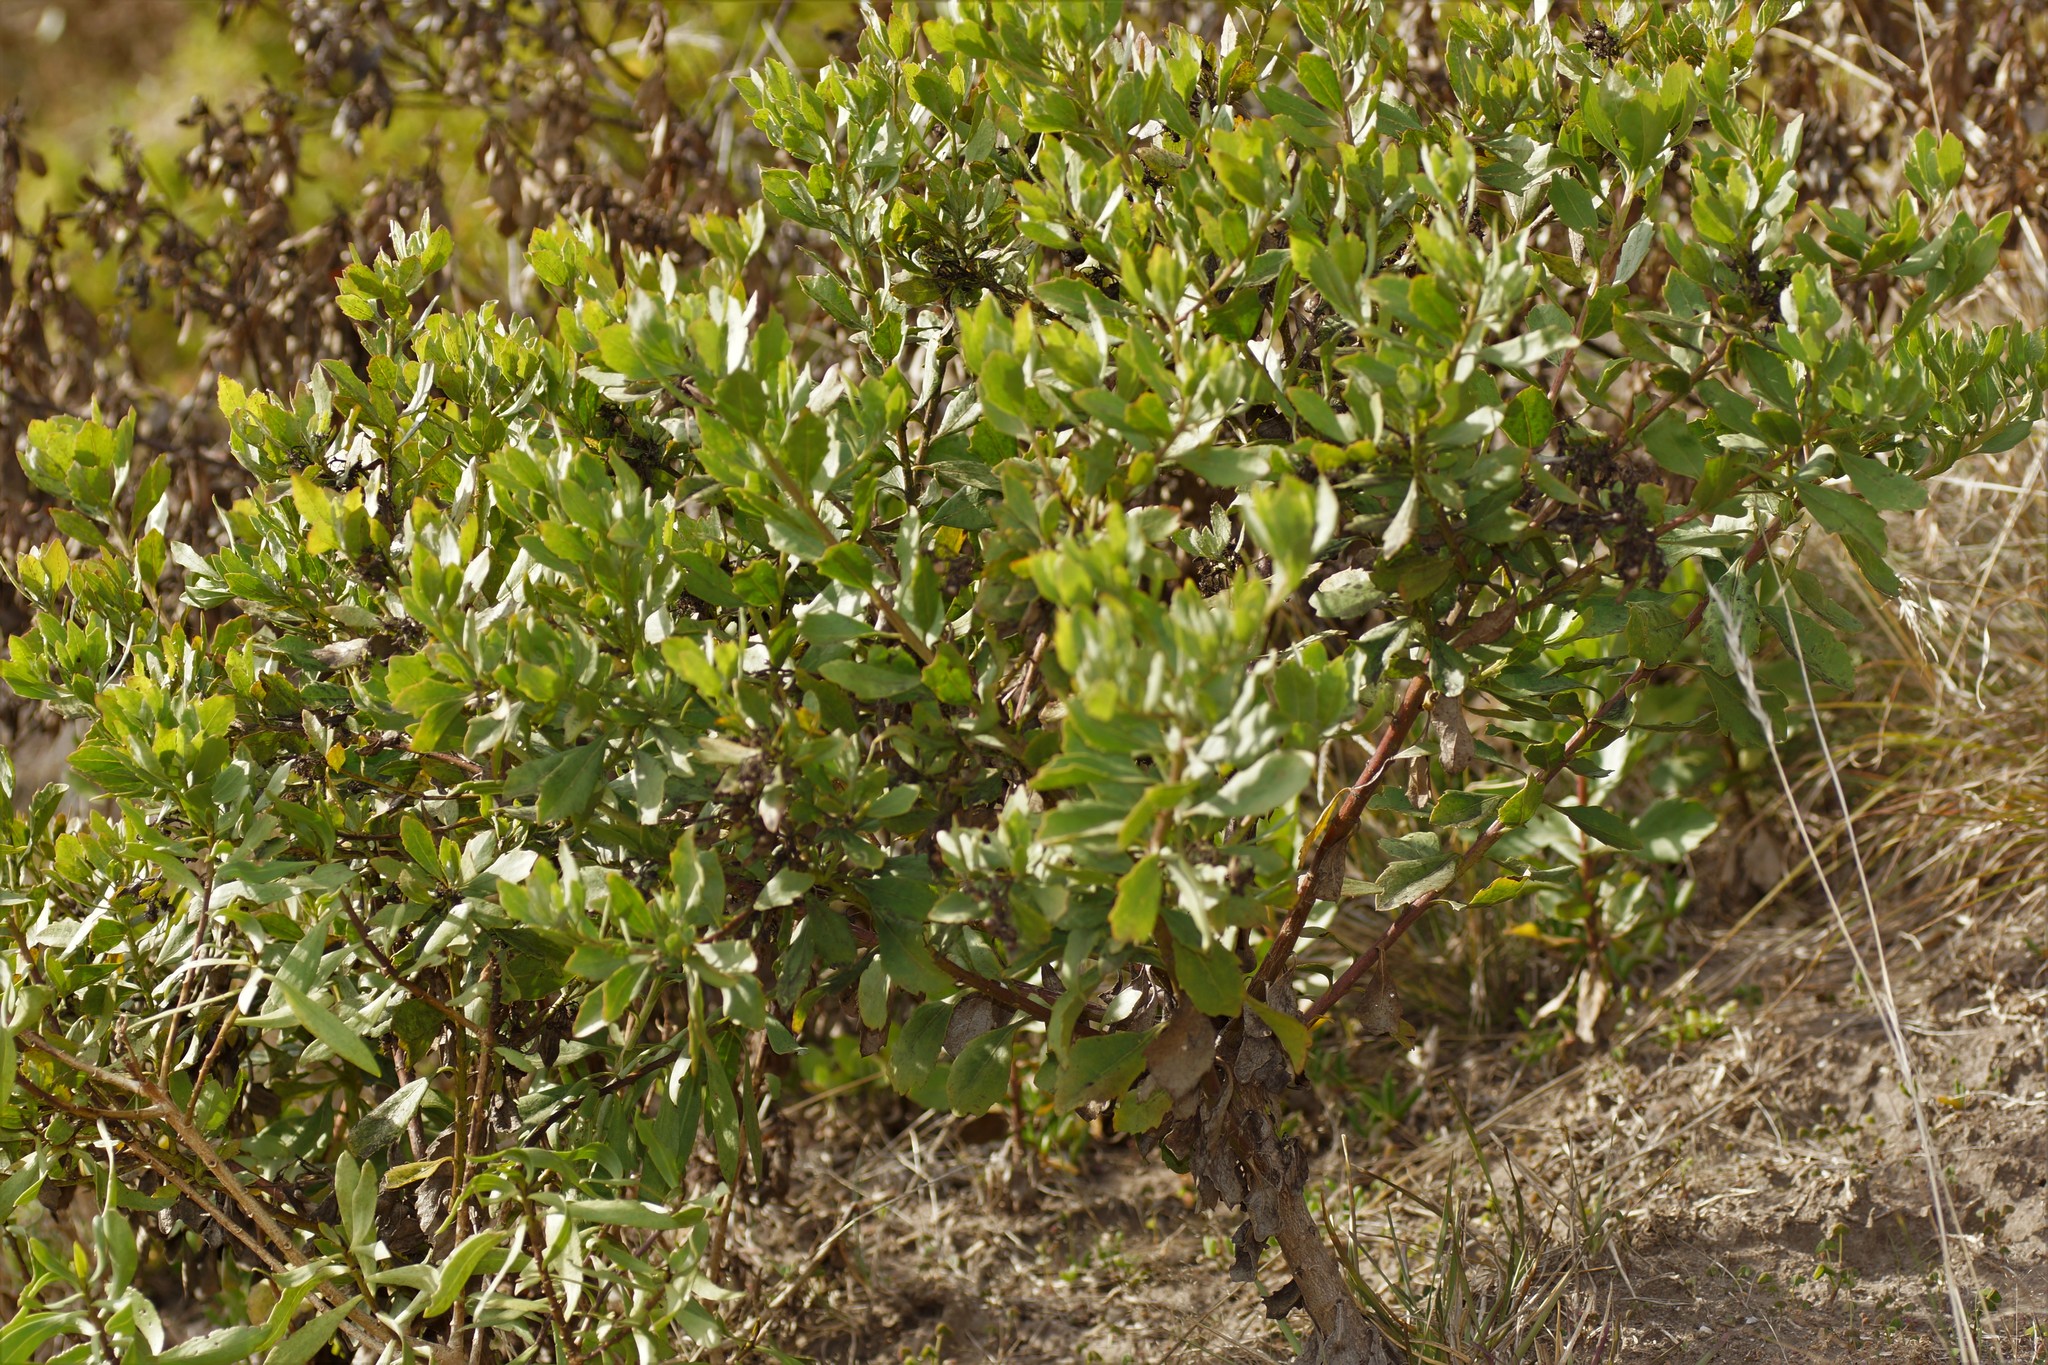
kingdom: Plantae
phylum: Tracheophyta
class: Magnoliopsida
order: Asterales
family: Asteraceae
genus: Osteospermum
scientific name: Osteospermum moniliferum
